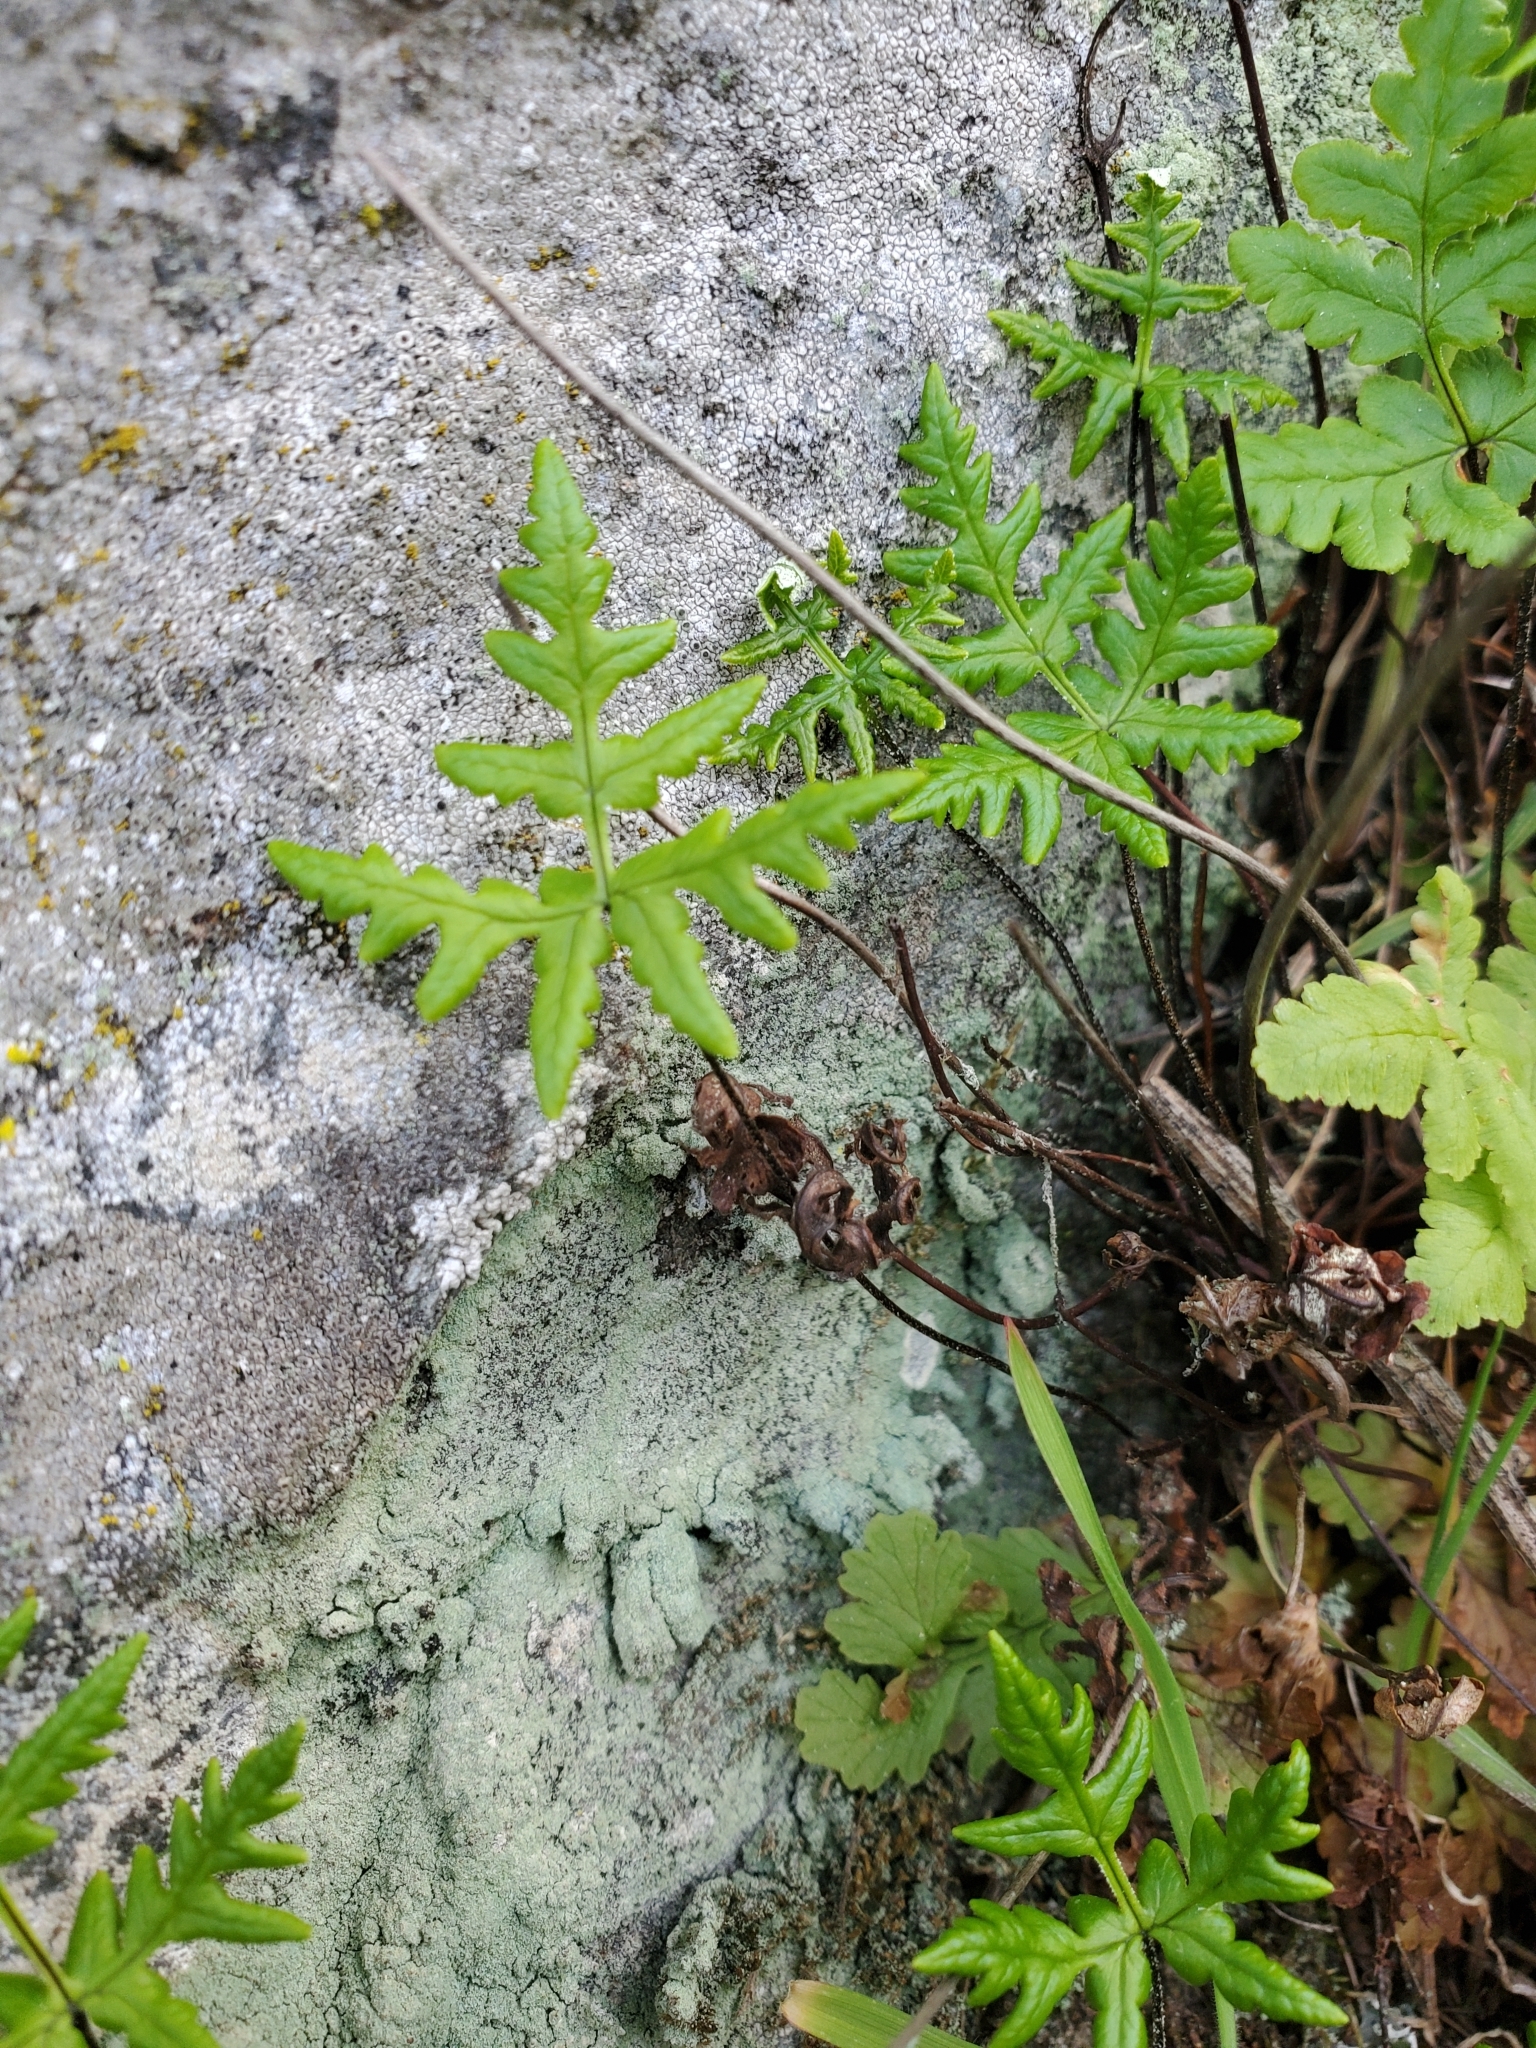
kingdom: Plantae
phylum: Tracheophyta
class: Polypodiopsida
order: Polypodiales
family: Pteridaceae
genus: Pentagramma
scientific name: Pentagramma triangularis
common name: Gold fern
